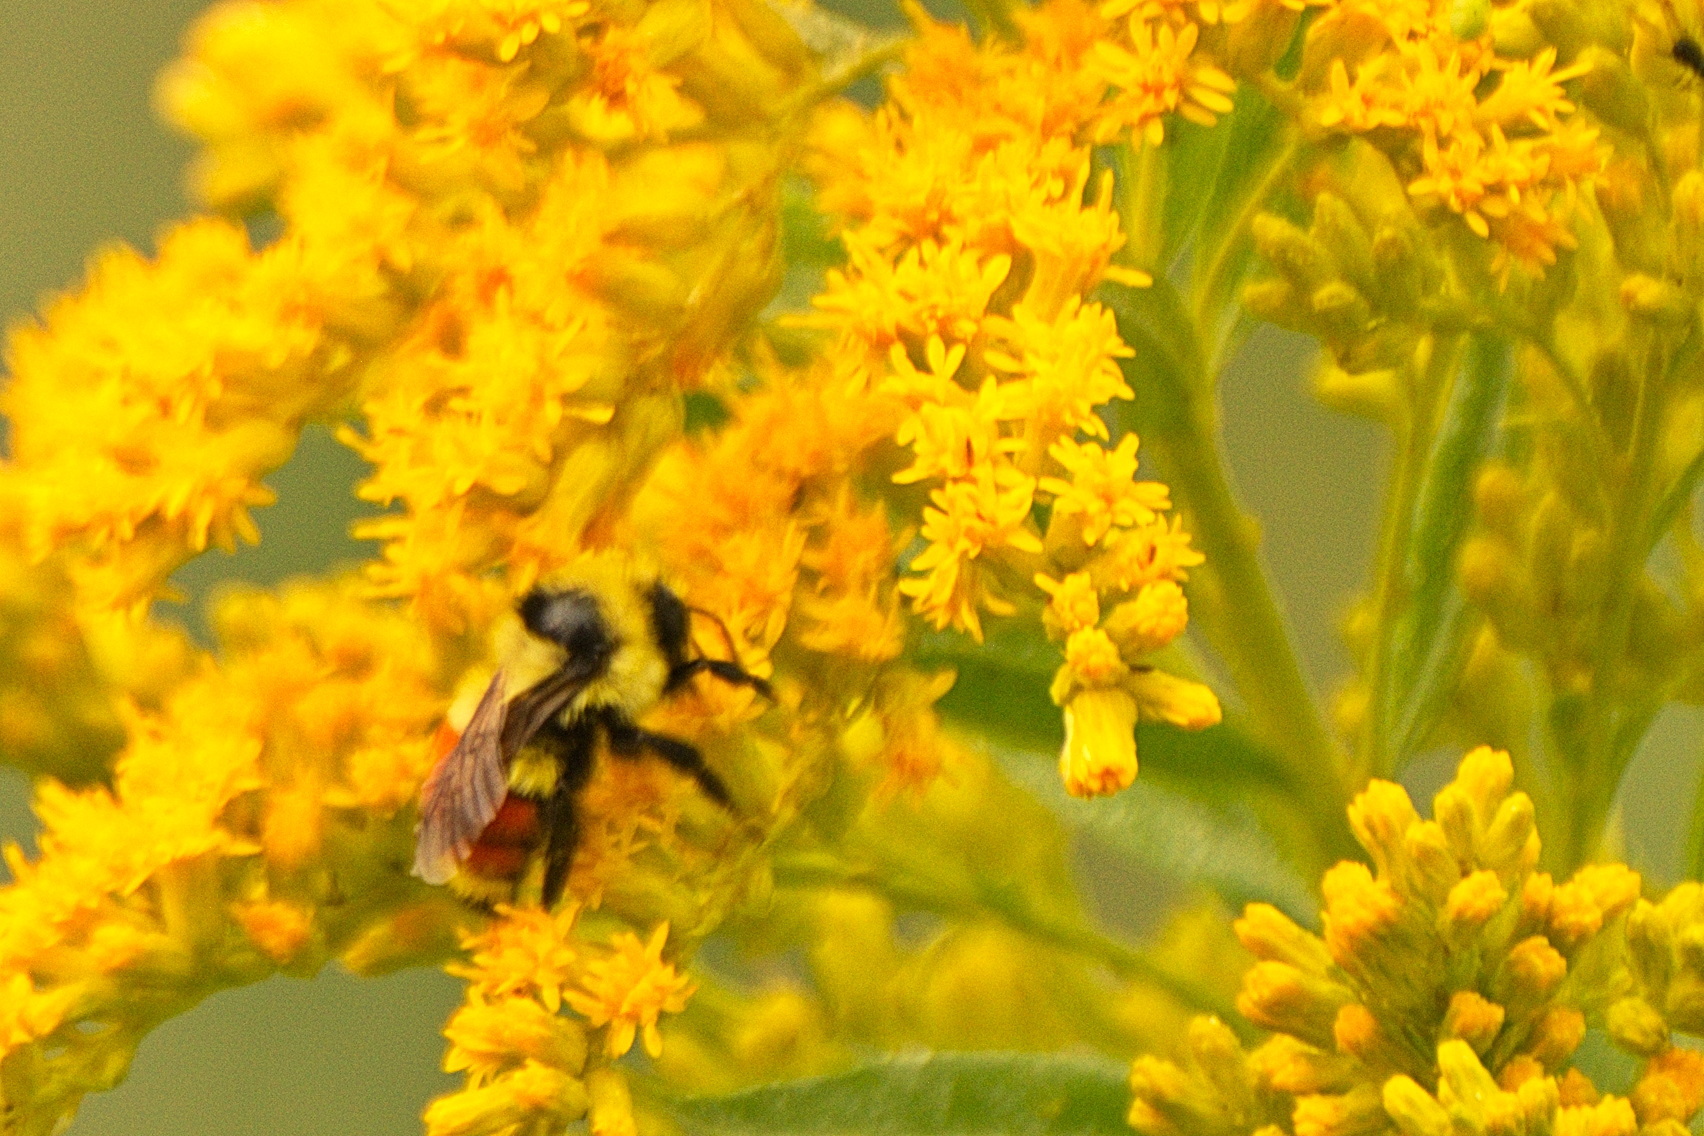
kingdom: Animalia
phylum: Arthropoda
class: Insecta
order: Hymenoptera
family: Apidae
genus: Bombus
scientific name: Bombus huntii
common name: Hunt bumble bee
